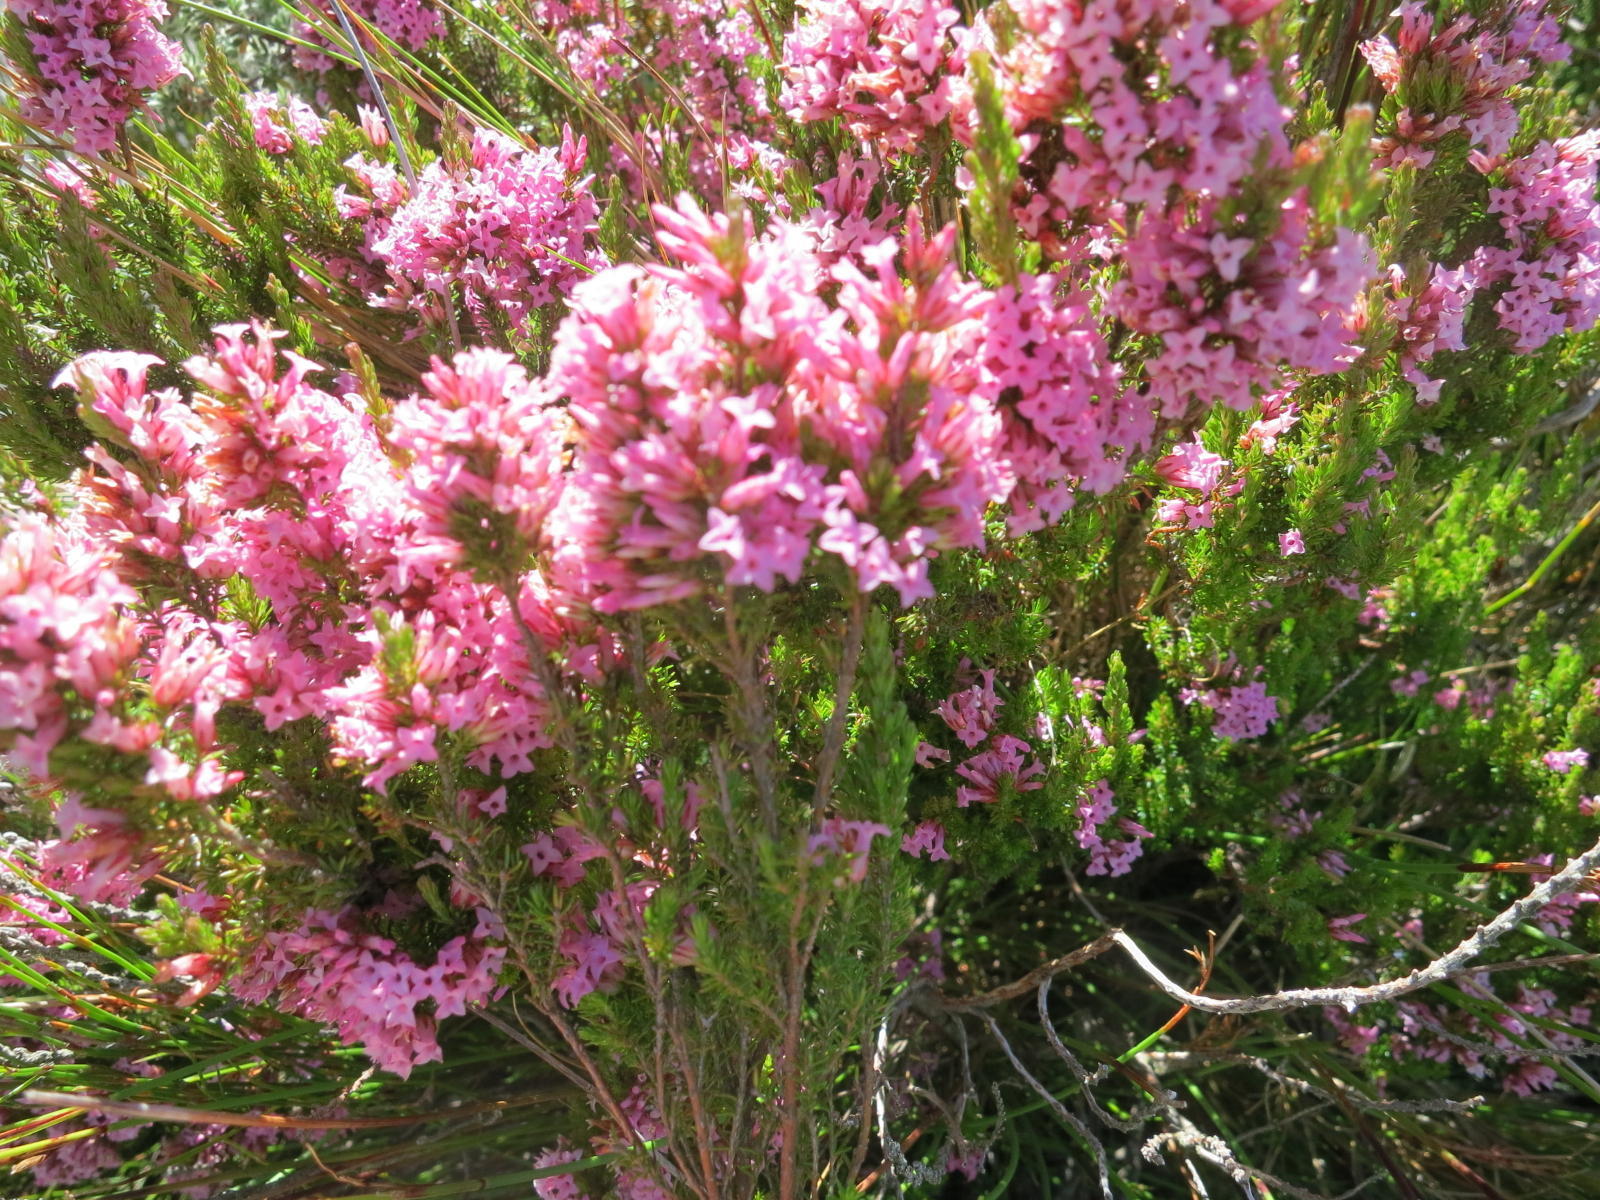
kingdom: Plantae
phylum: Tracheophyta
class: Magnoliopsida
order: Ericales
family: Ericaceae
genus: Erica
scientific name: Erica
